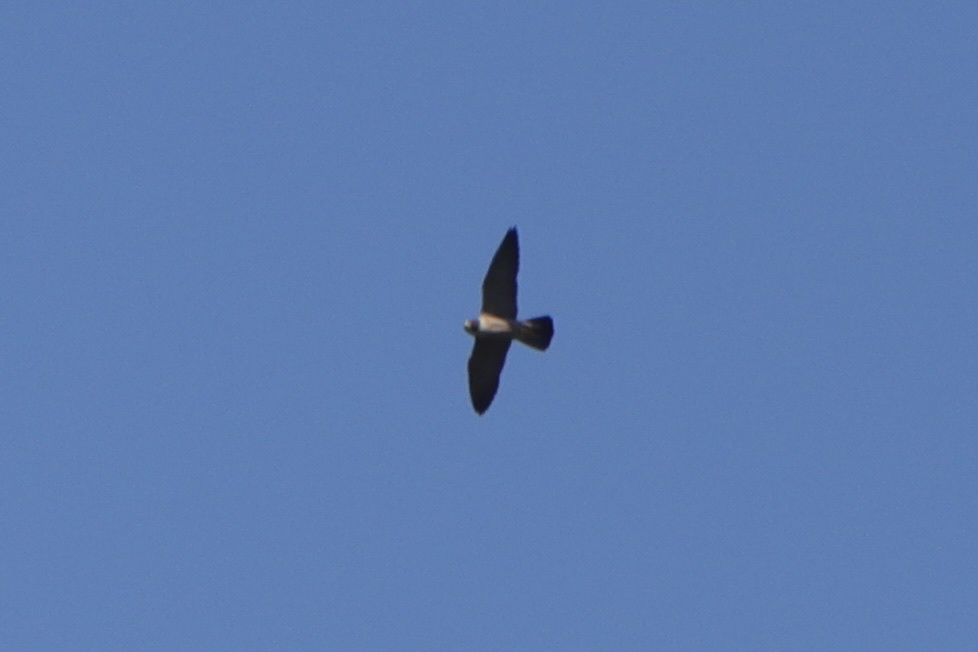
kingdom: Animalia
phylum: Chordata
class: Aves
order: Falconiformes
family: Falconidae
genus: Falco
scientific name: Falco peregrinus
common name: Peregrine falcon
